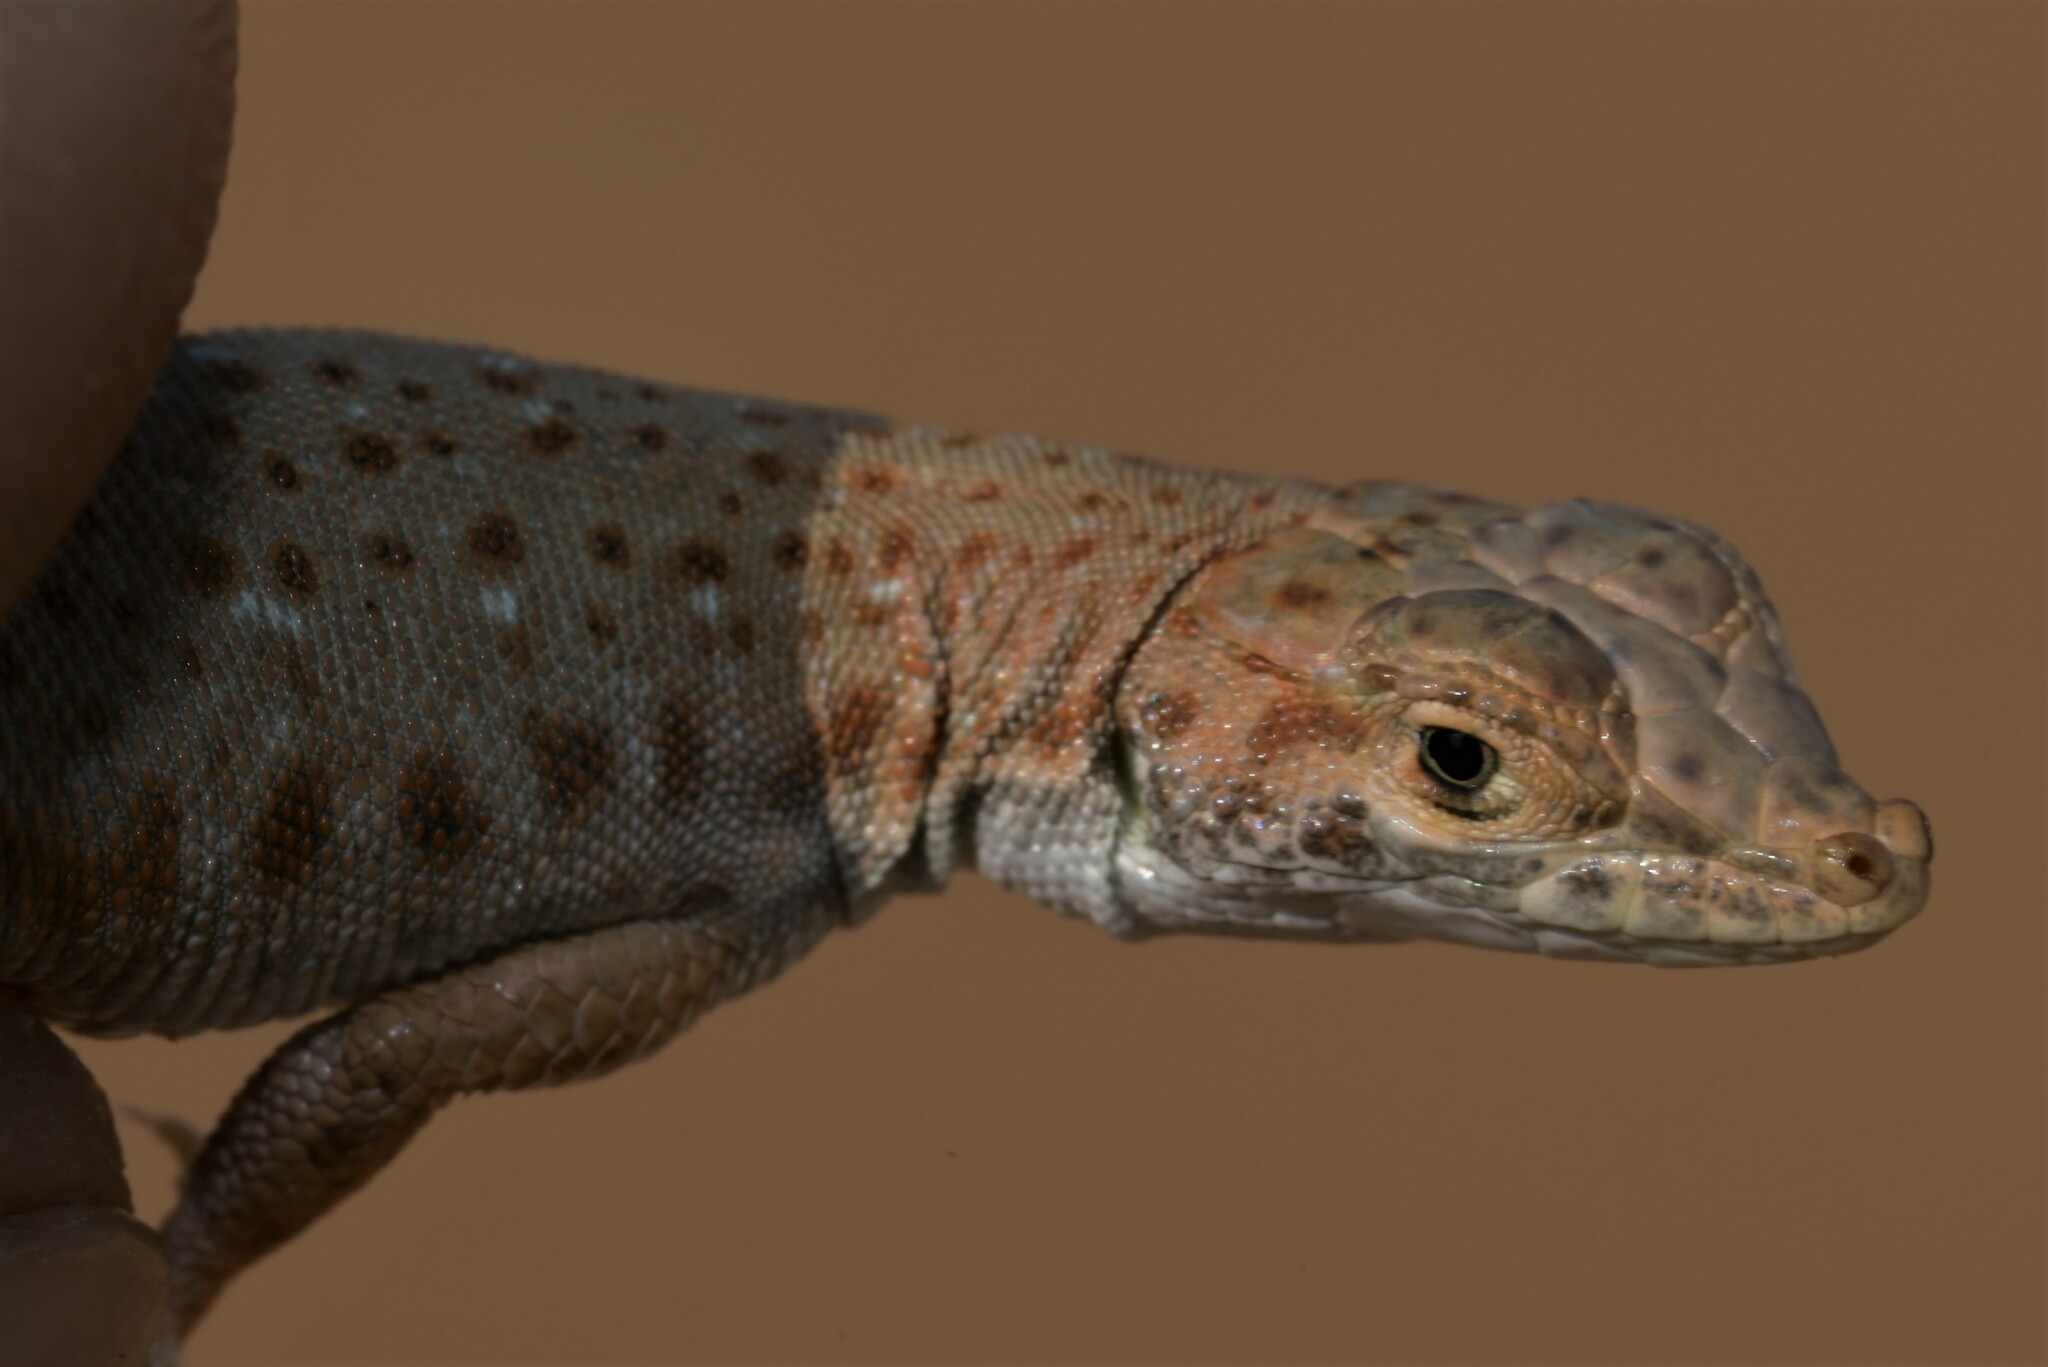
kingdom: Animalia
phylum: Chordata
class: Squamata
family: Lacertidae
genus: Mesalina
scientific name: Mesalina saudiarabica
